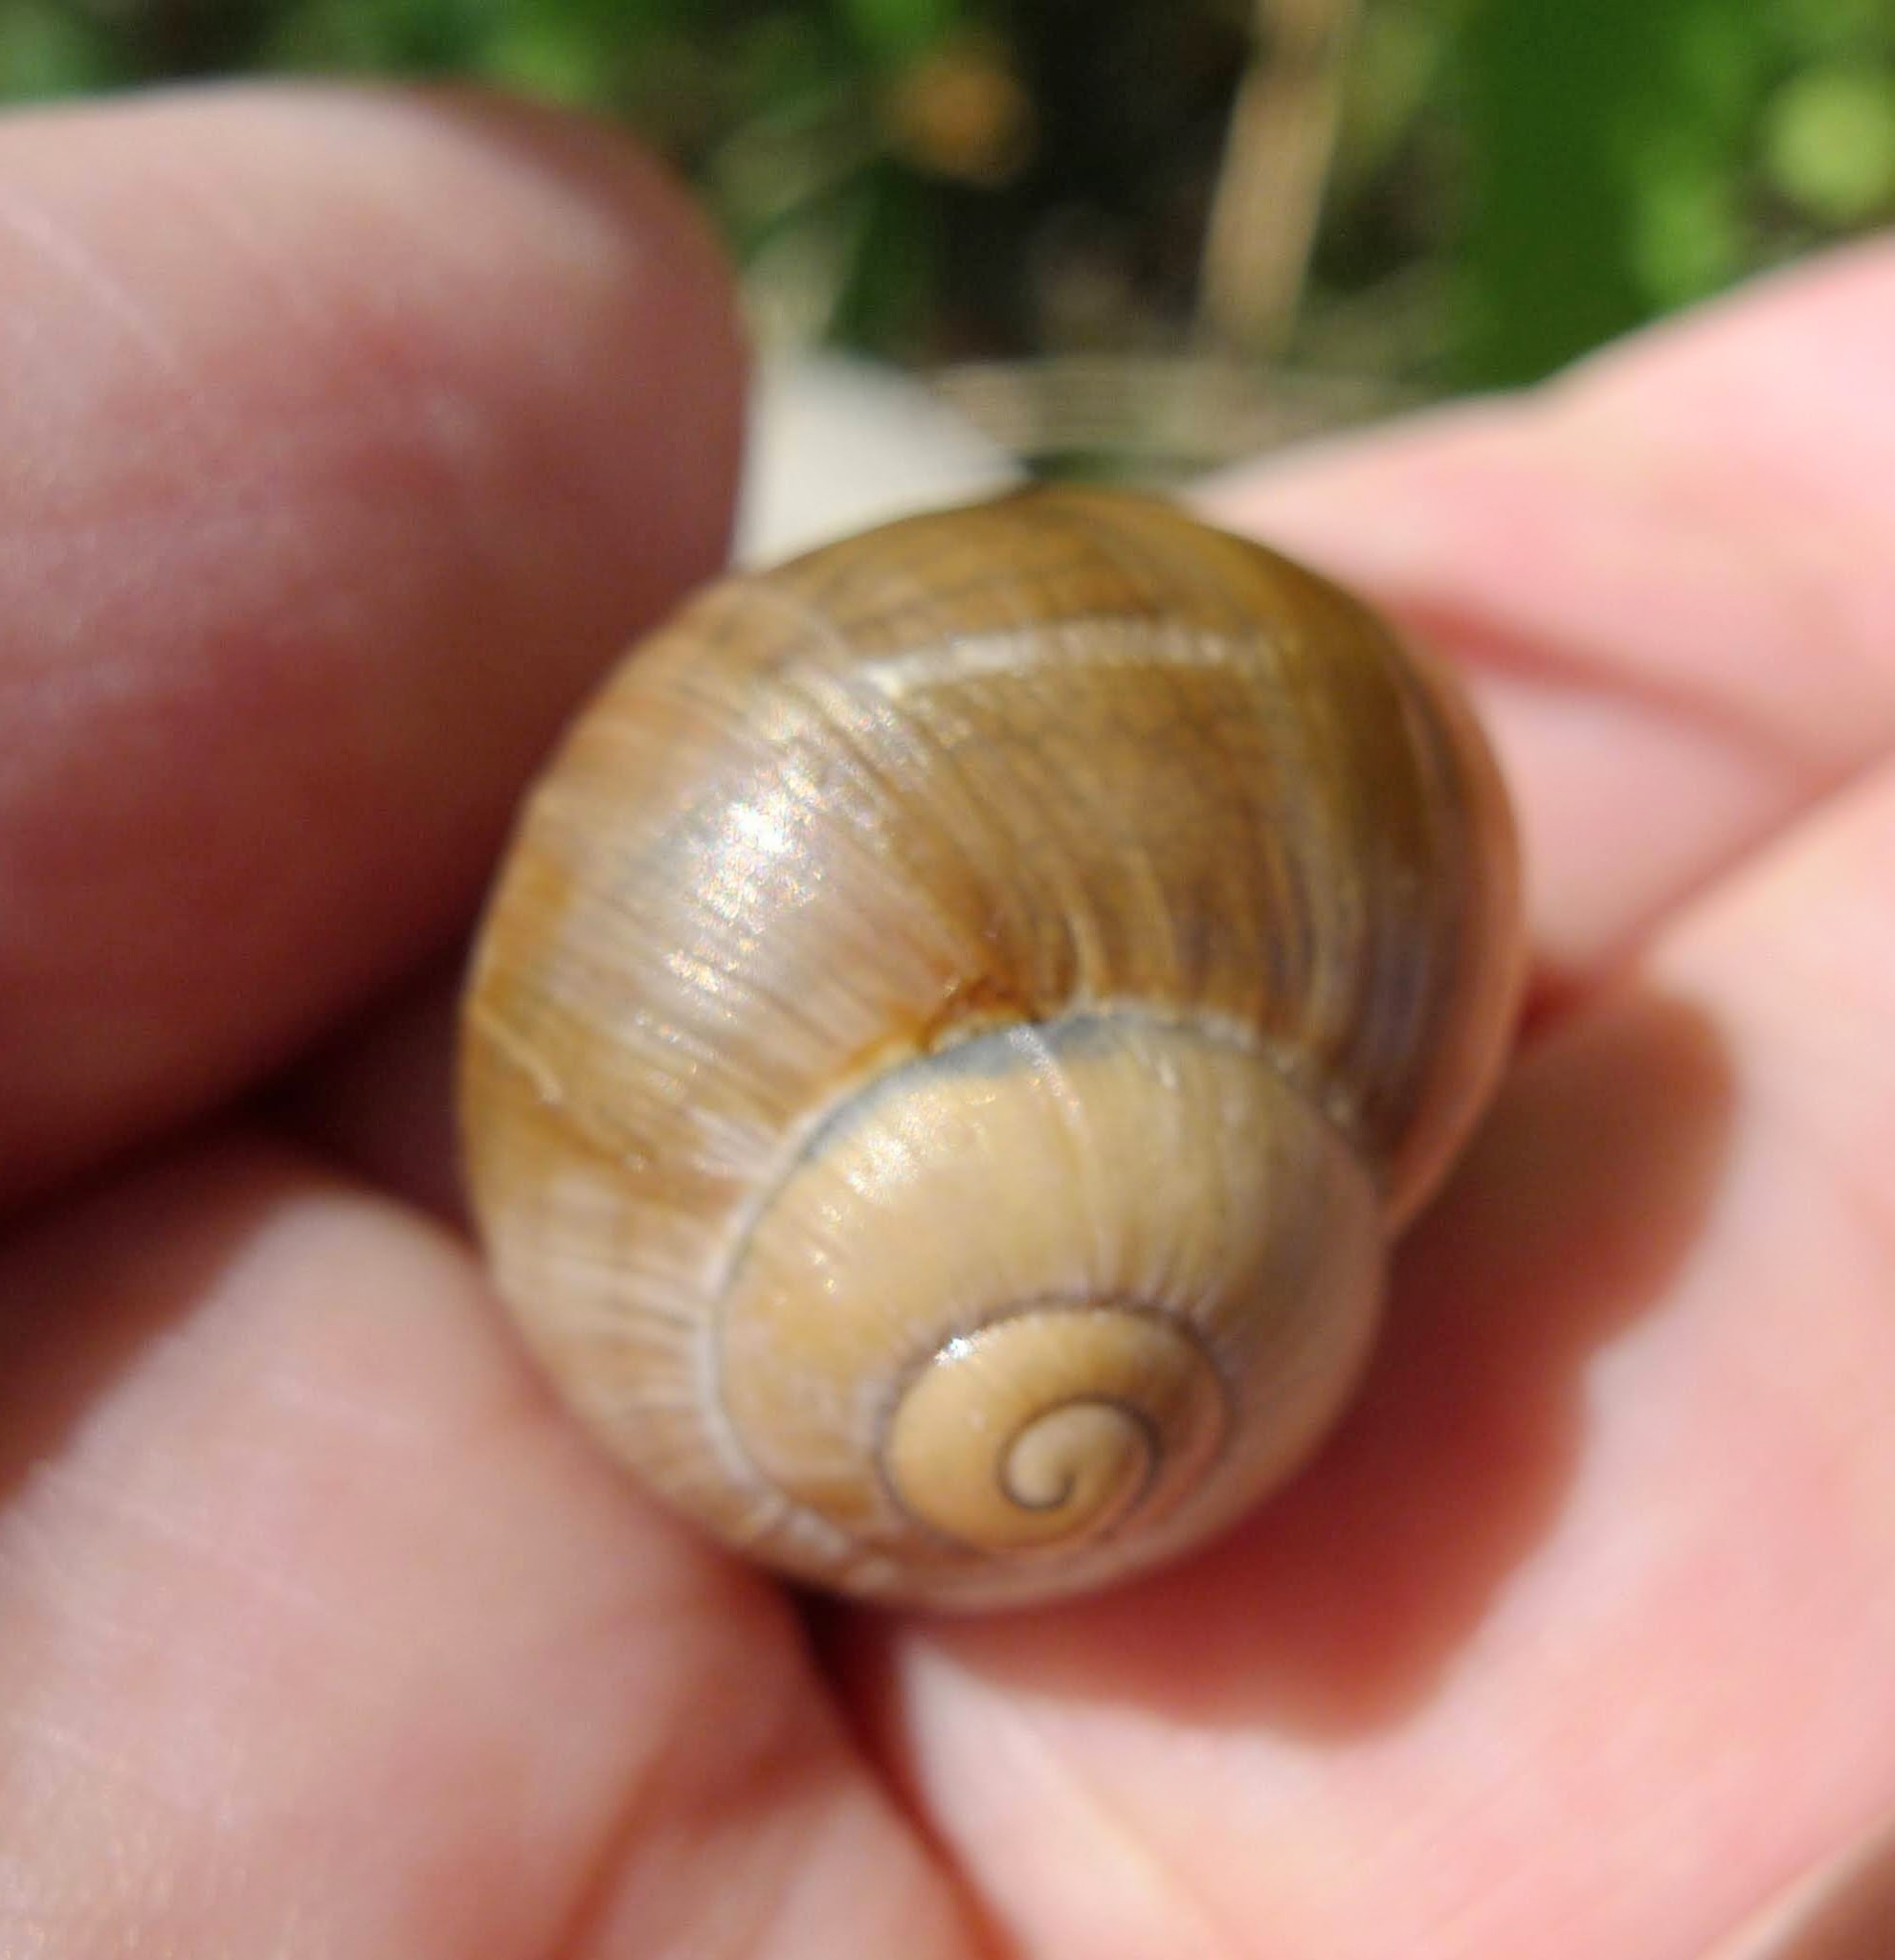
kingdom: Animalia
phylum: Mollusca
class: Gastropoda
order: Stylommatophora
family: Helicidae
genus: Helix
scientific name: Helix lutescens
